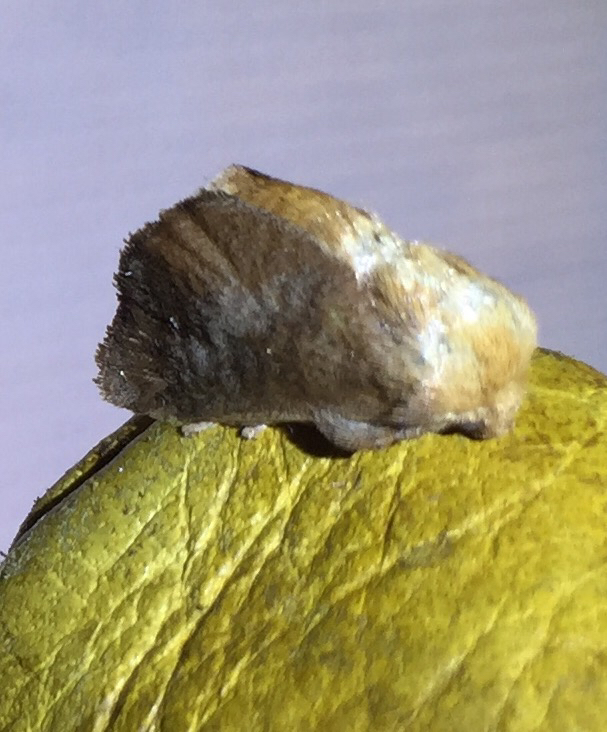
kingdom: Animalia
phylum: Arthropoda
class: Insecta
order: Lepidoptera
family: Limacodidae
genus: Isa
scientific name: Isa textula
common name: Crowned slug moth
